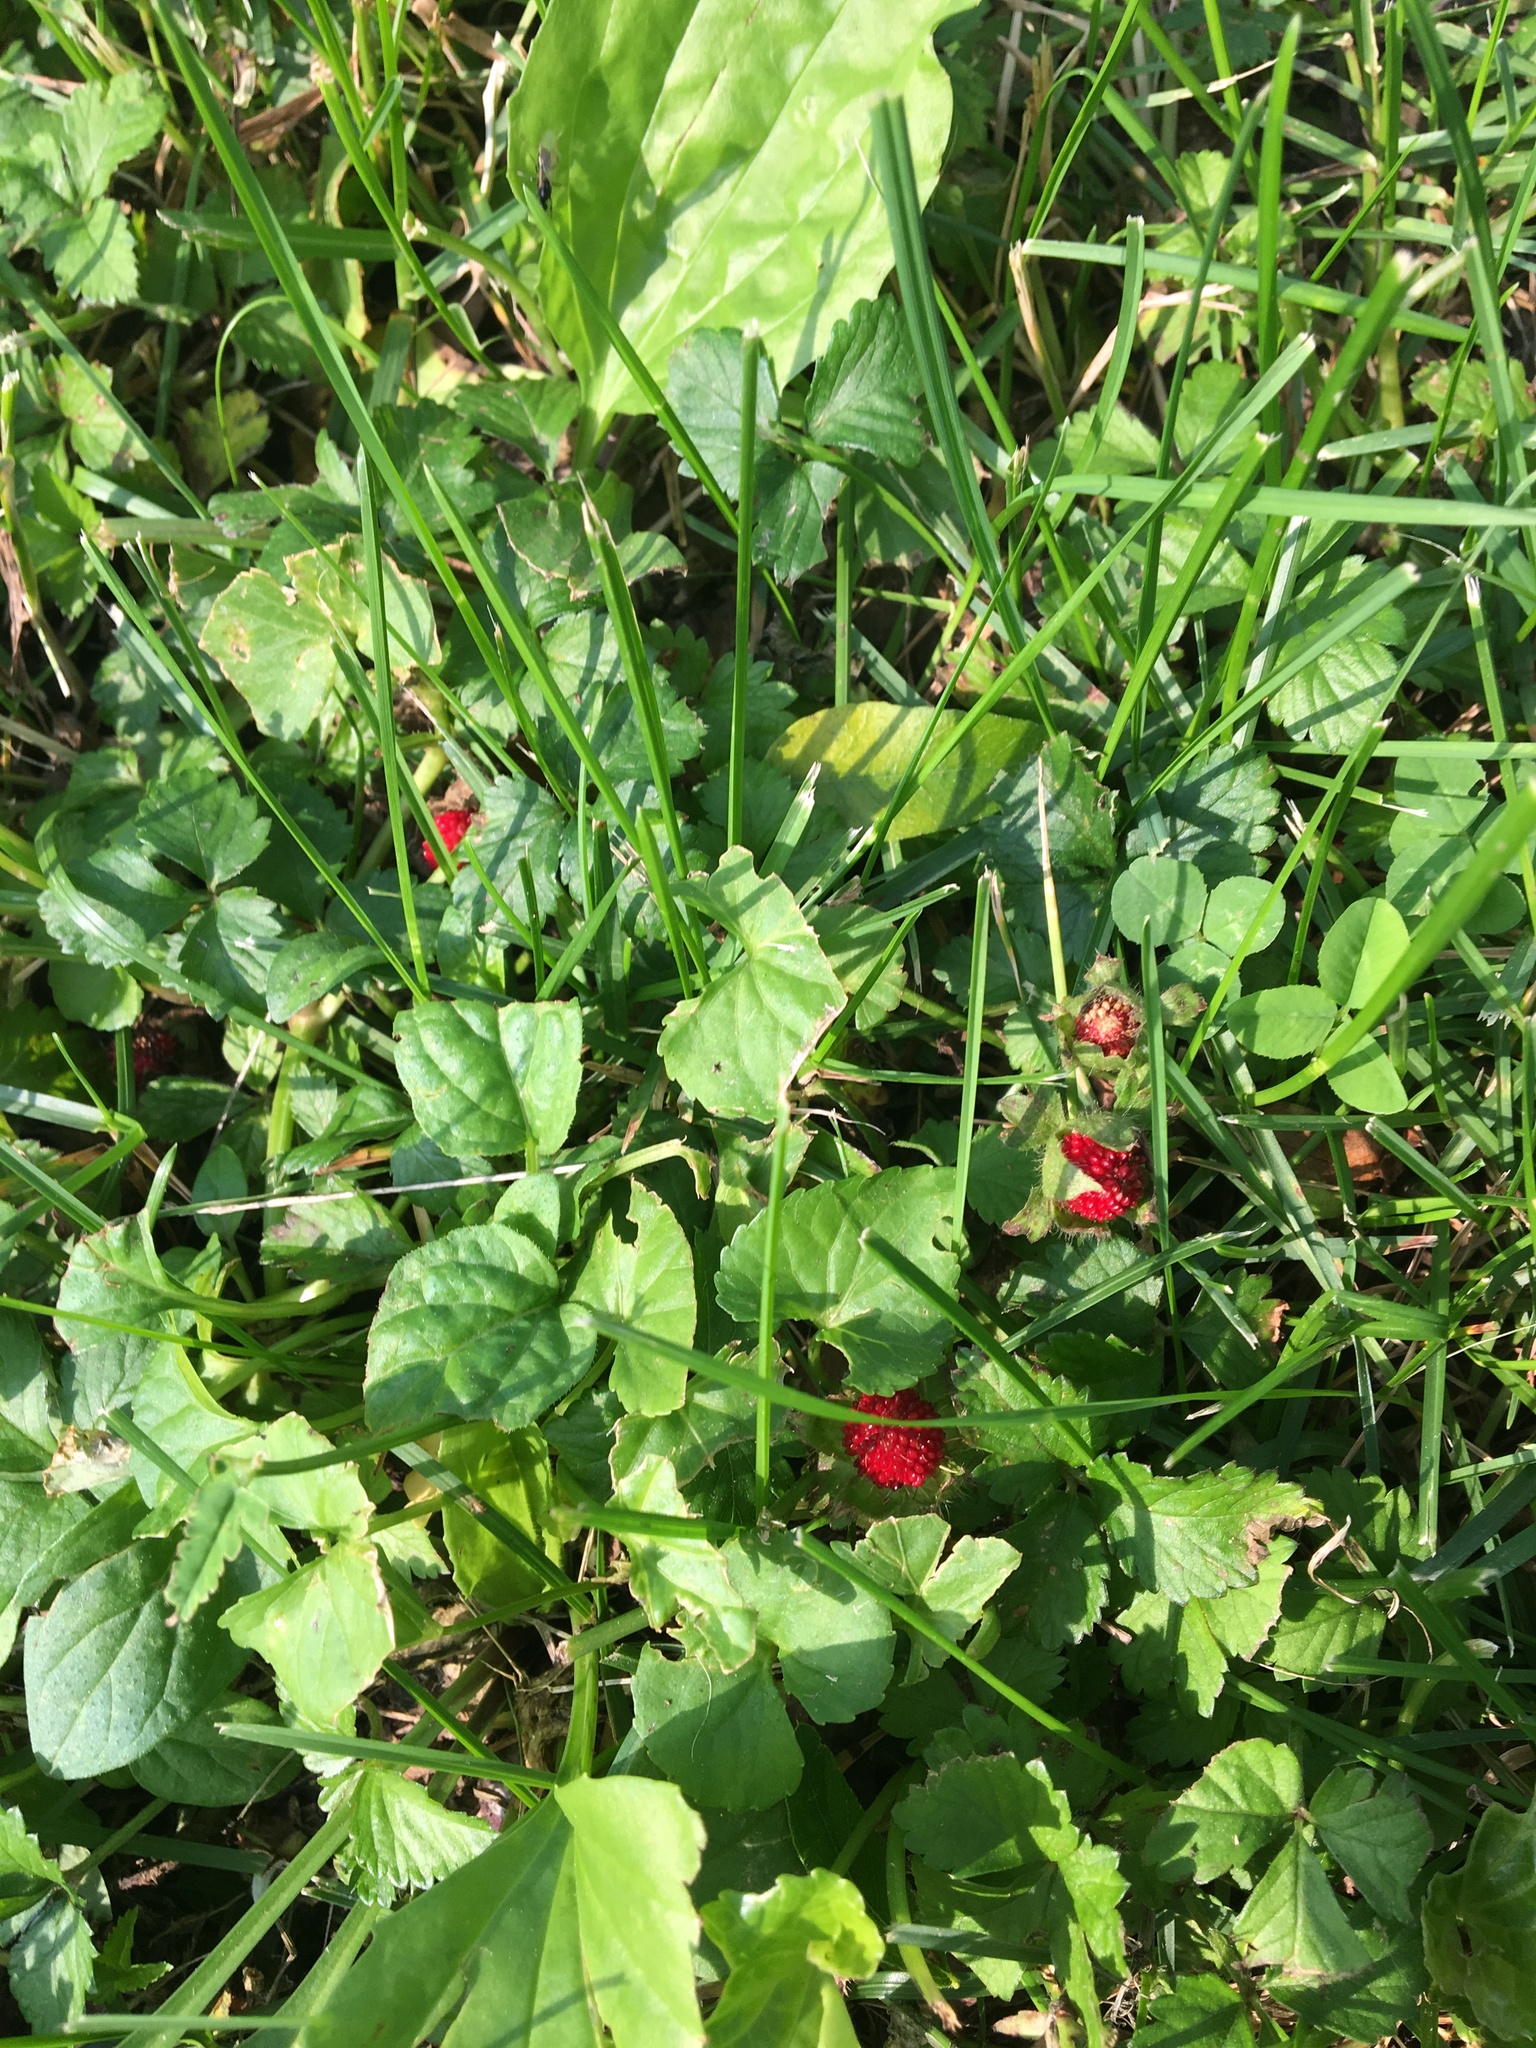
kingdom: Plantae
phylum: Tracheophyta
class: Magnoliopsida
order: Rosales
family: Rosaceae
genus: Potentilla
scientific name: Potentilla indica
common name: Yellow-flowered strawberry
